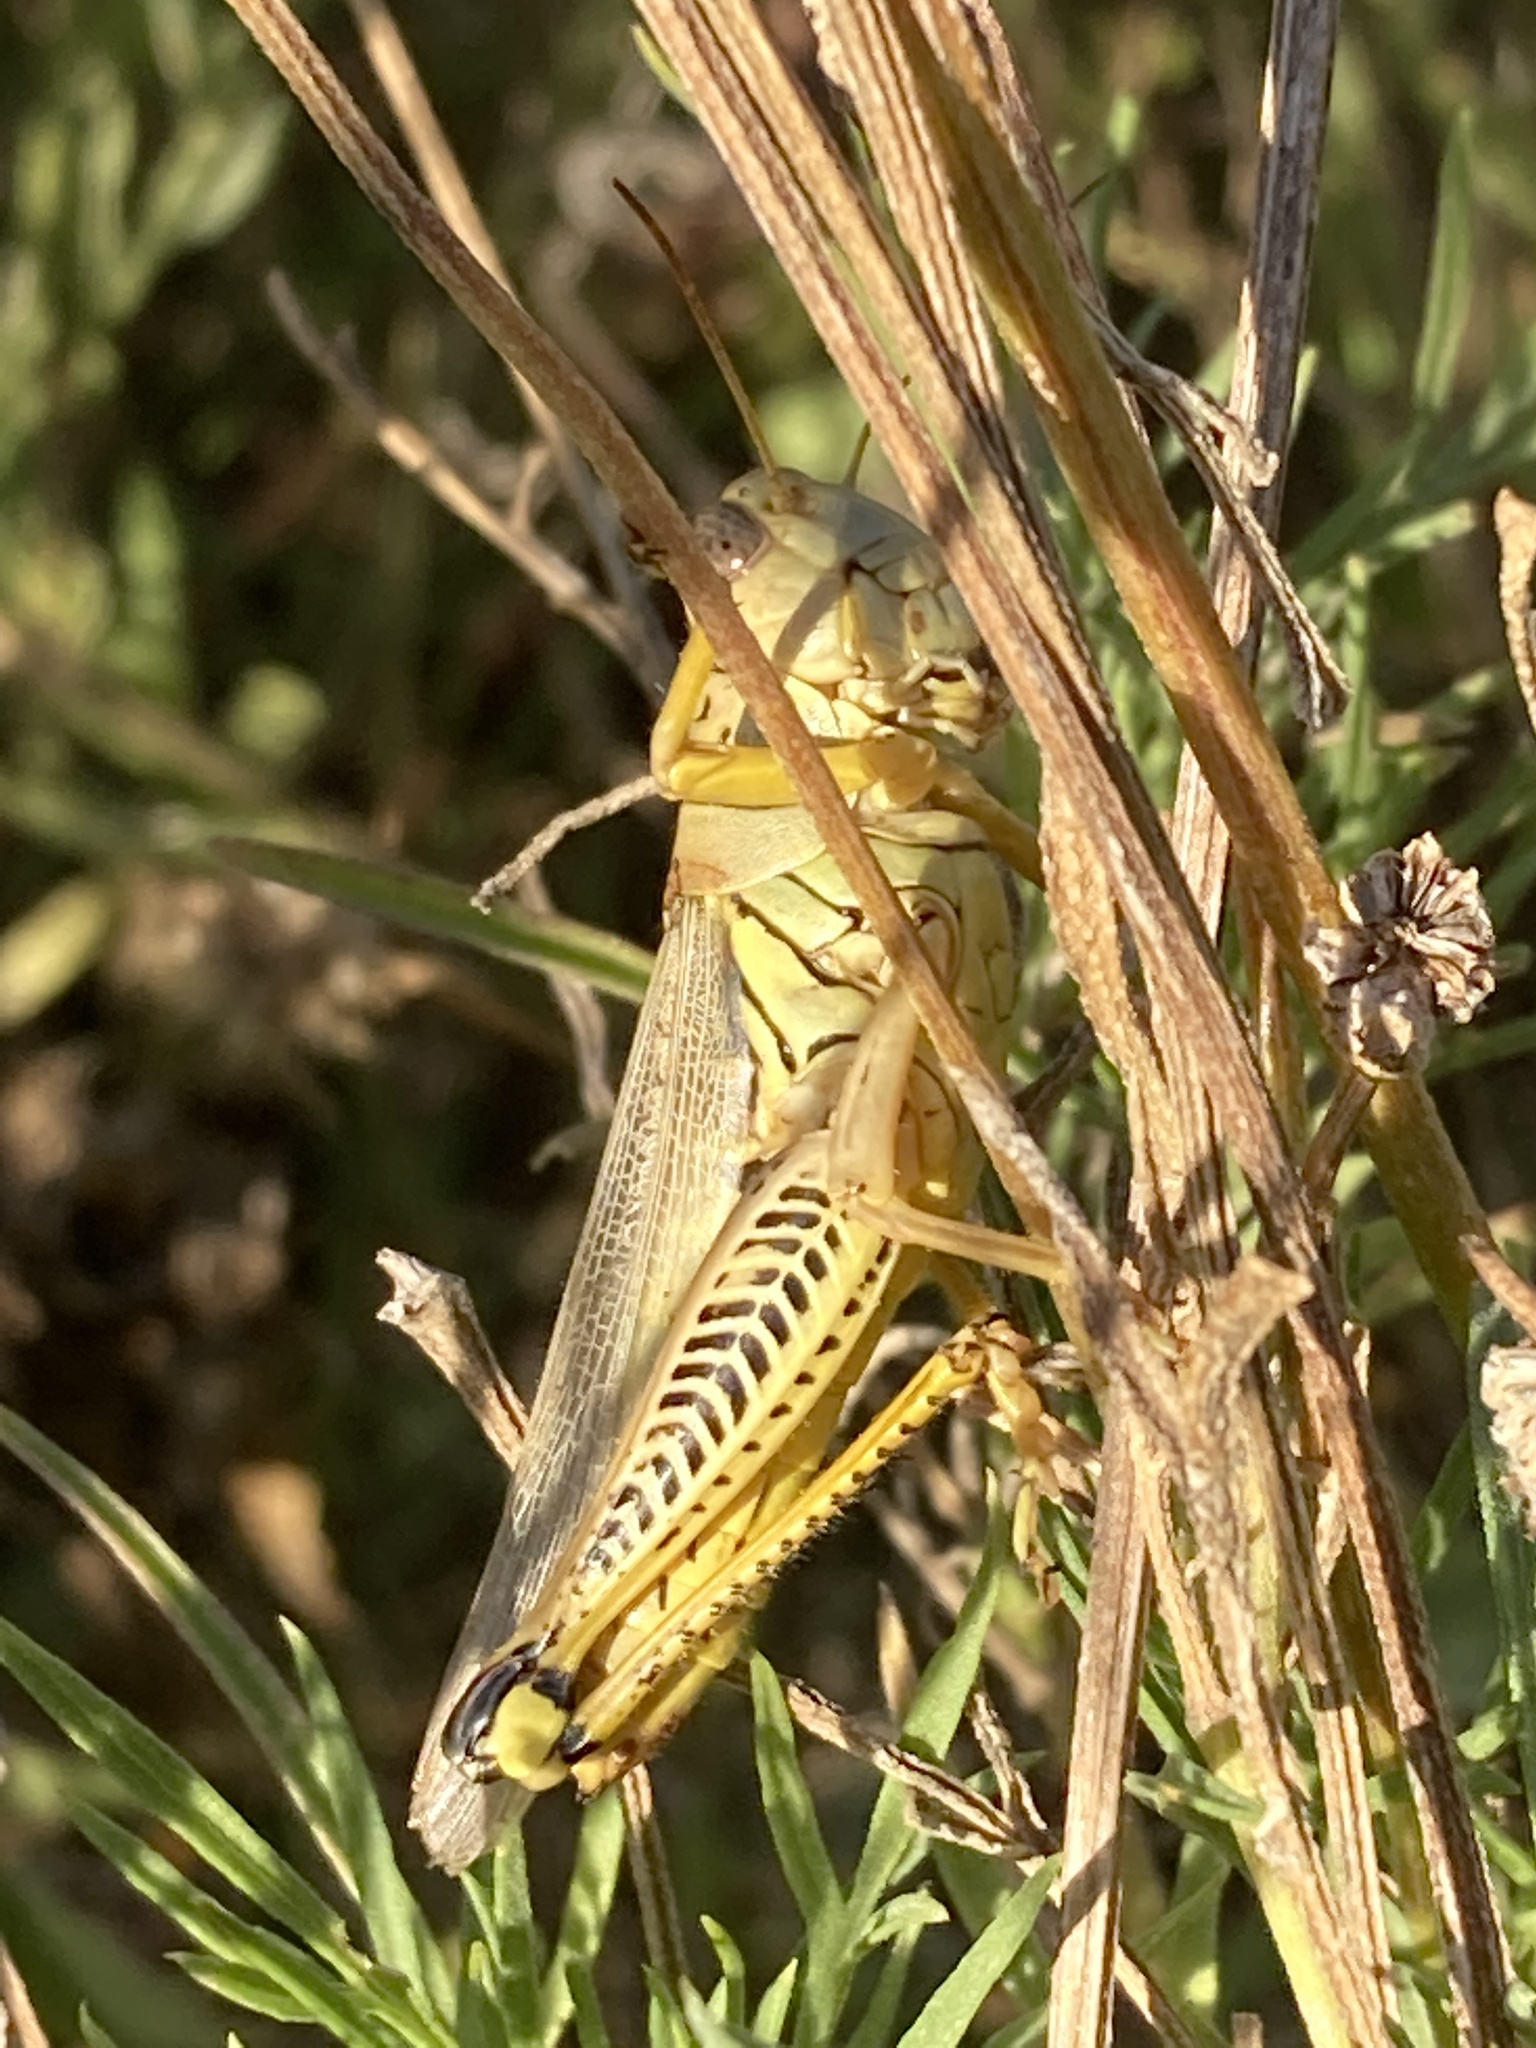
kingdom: Animalia
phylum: Arthropoda
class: Insecta
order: Orthoptera
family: Acrididae
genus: Melanoplus
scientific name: Melanoplus differentialis
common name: Differential grasshopper
